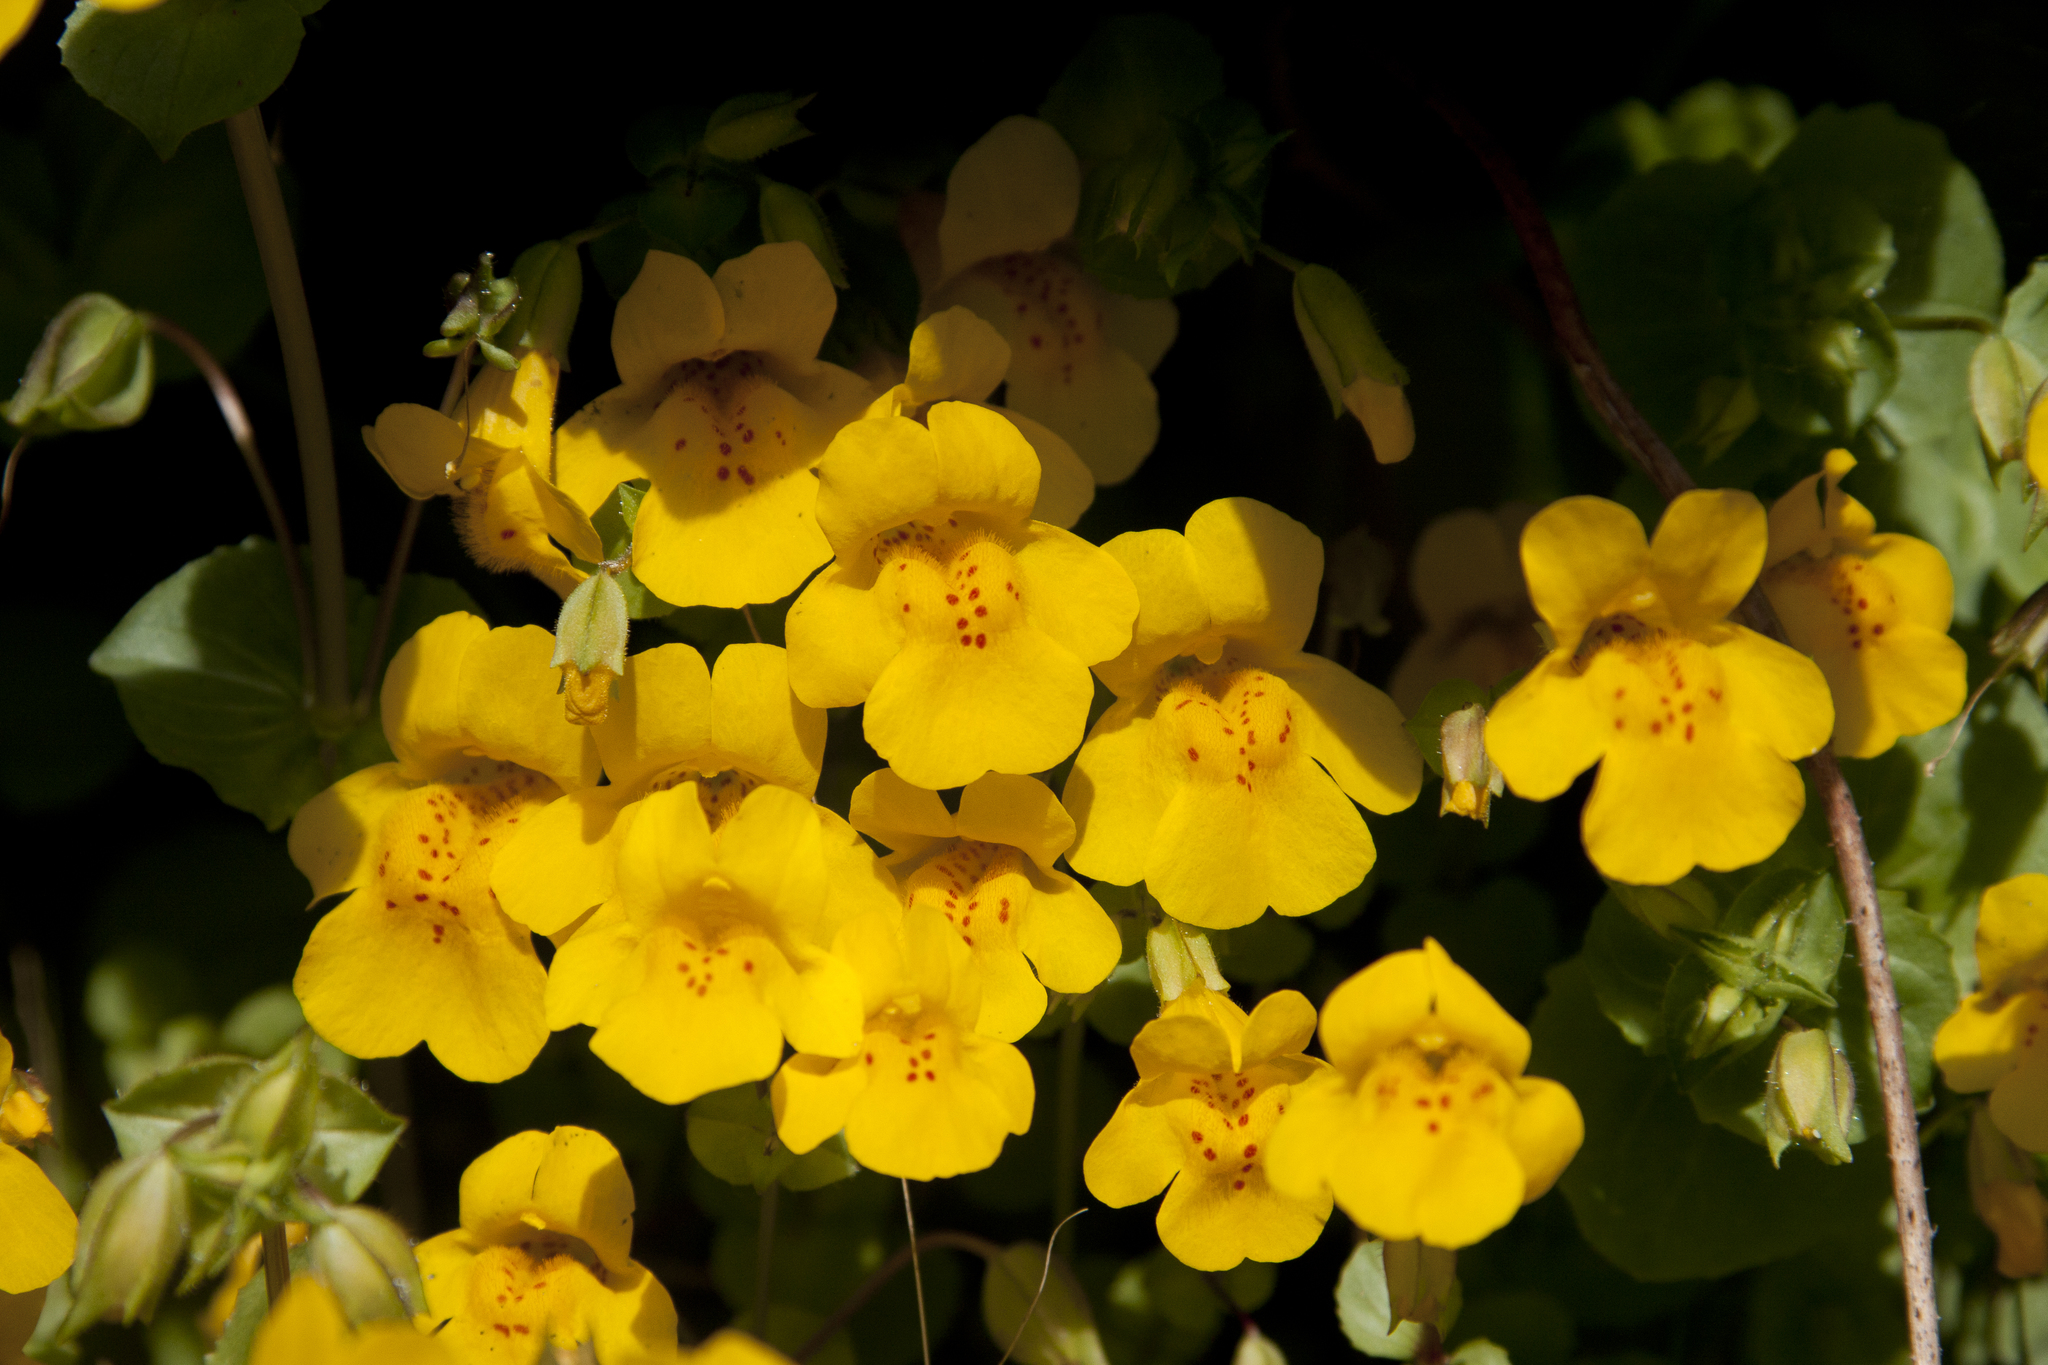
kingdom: Plantae
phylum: Tracheophyta
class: Magnoliopsida
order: Lamiales
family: Phrymaceae
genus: Erythranthe
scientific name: Erythranthe guttata
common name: Monkeyflower
